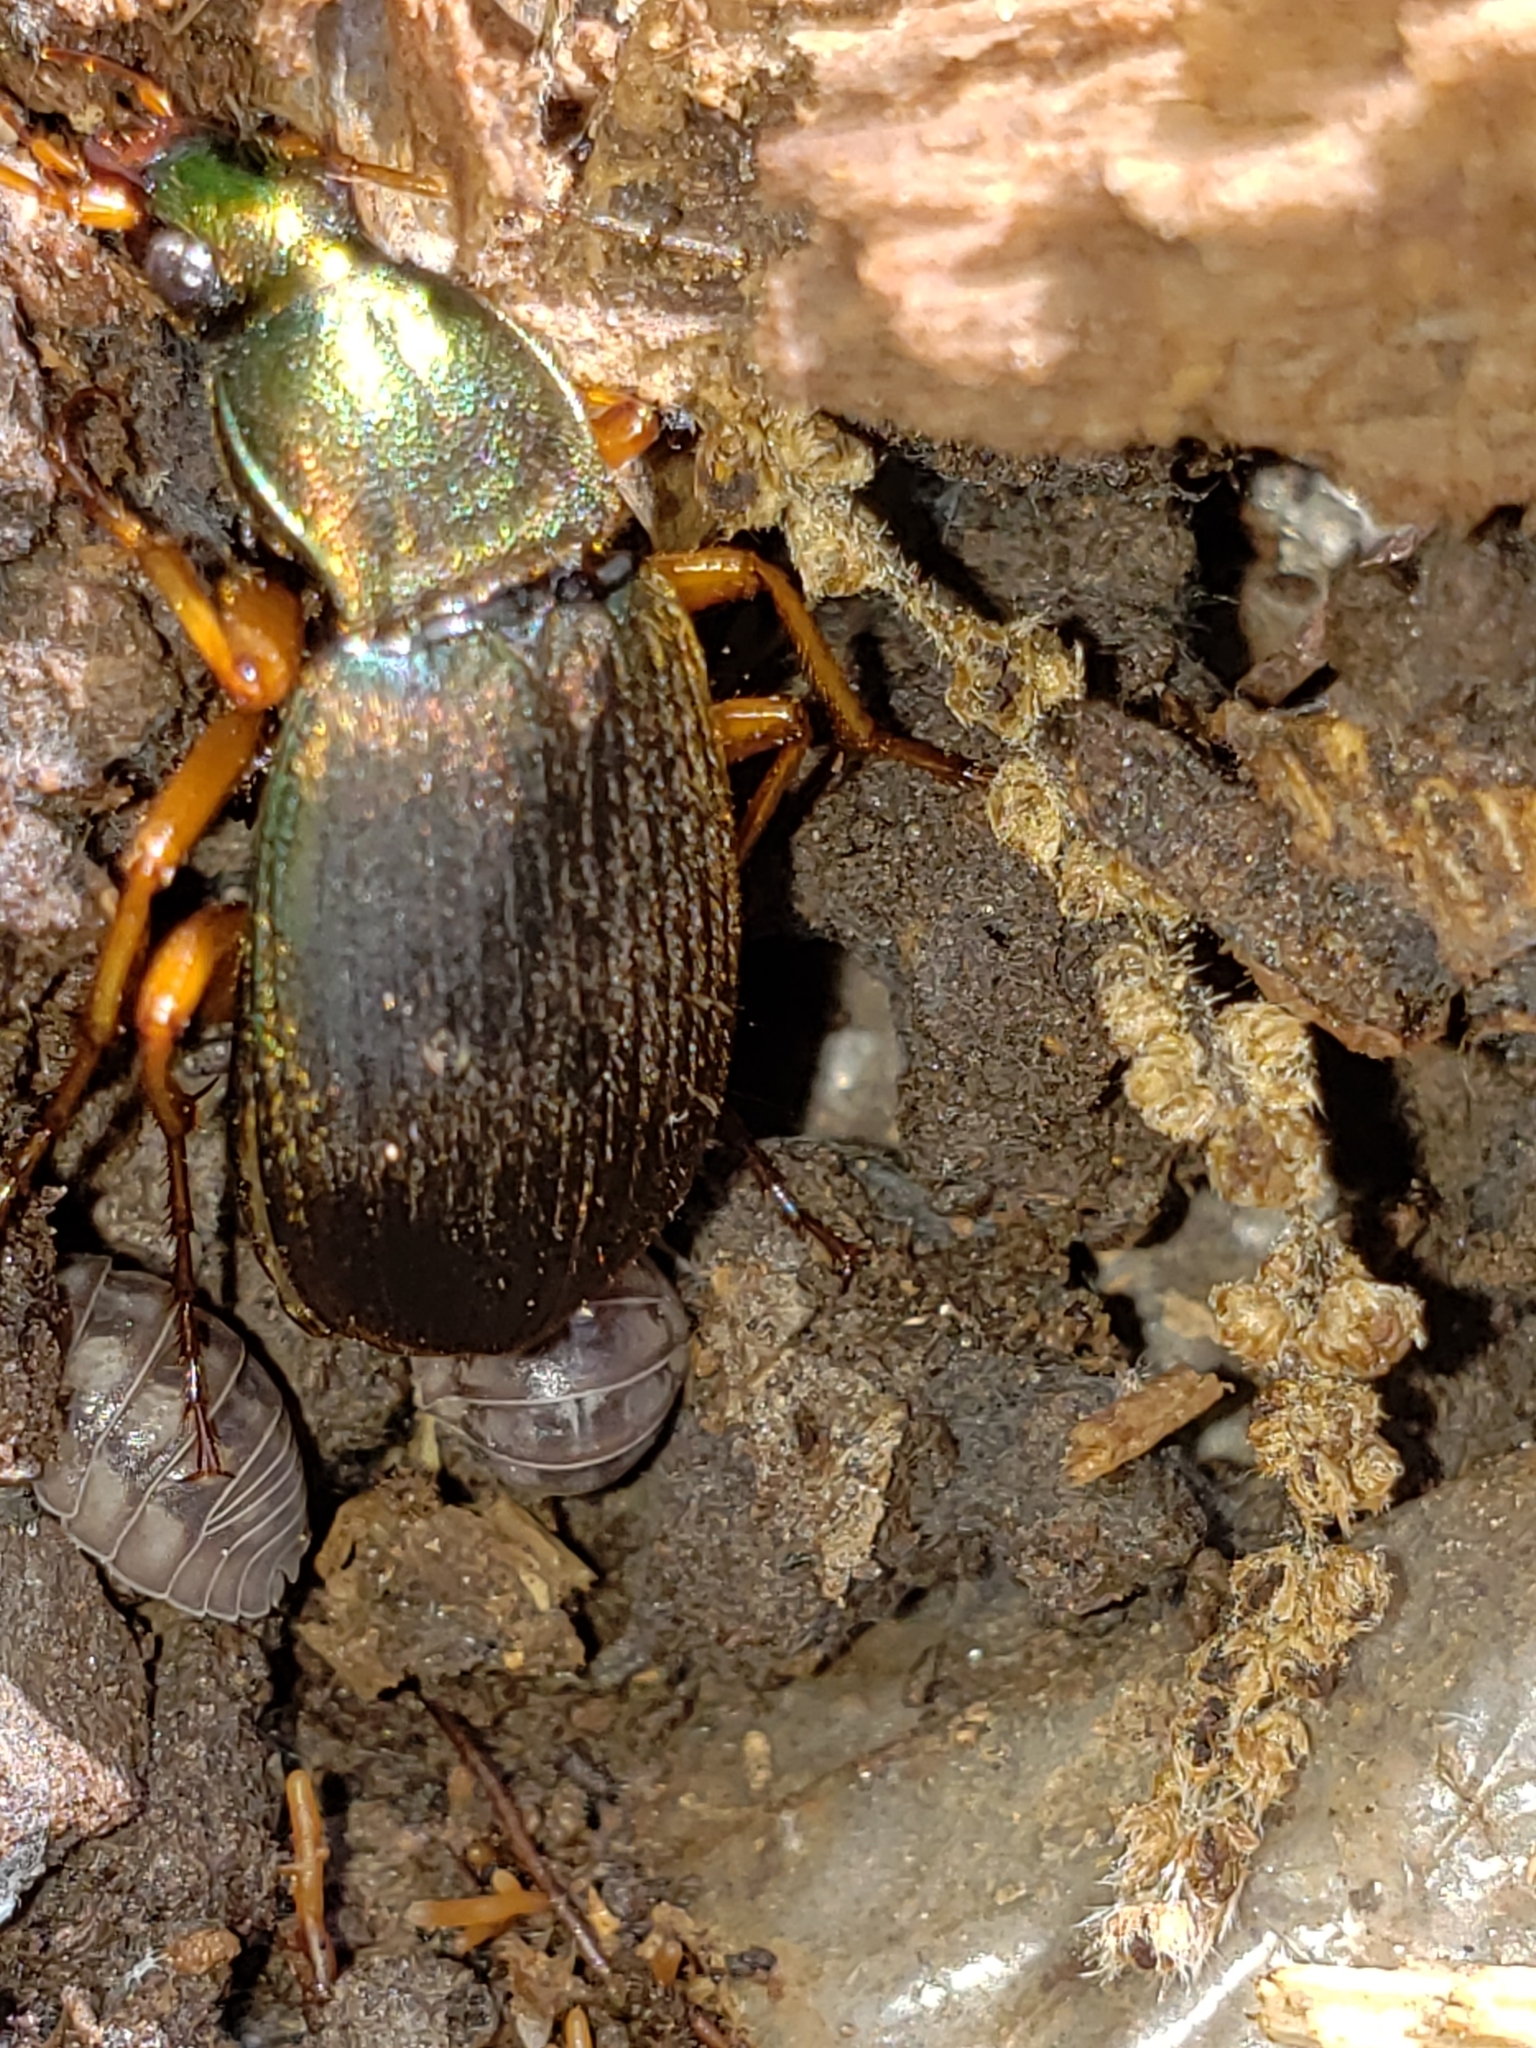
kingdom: Animalia
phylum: Arthropoda
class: Insecta
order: Coleoptera
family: Carabidae
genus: Chlaenius
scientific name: Chlaenius aestivus
